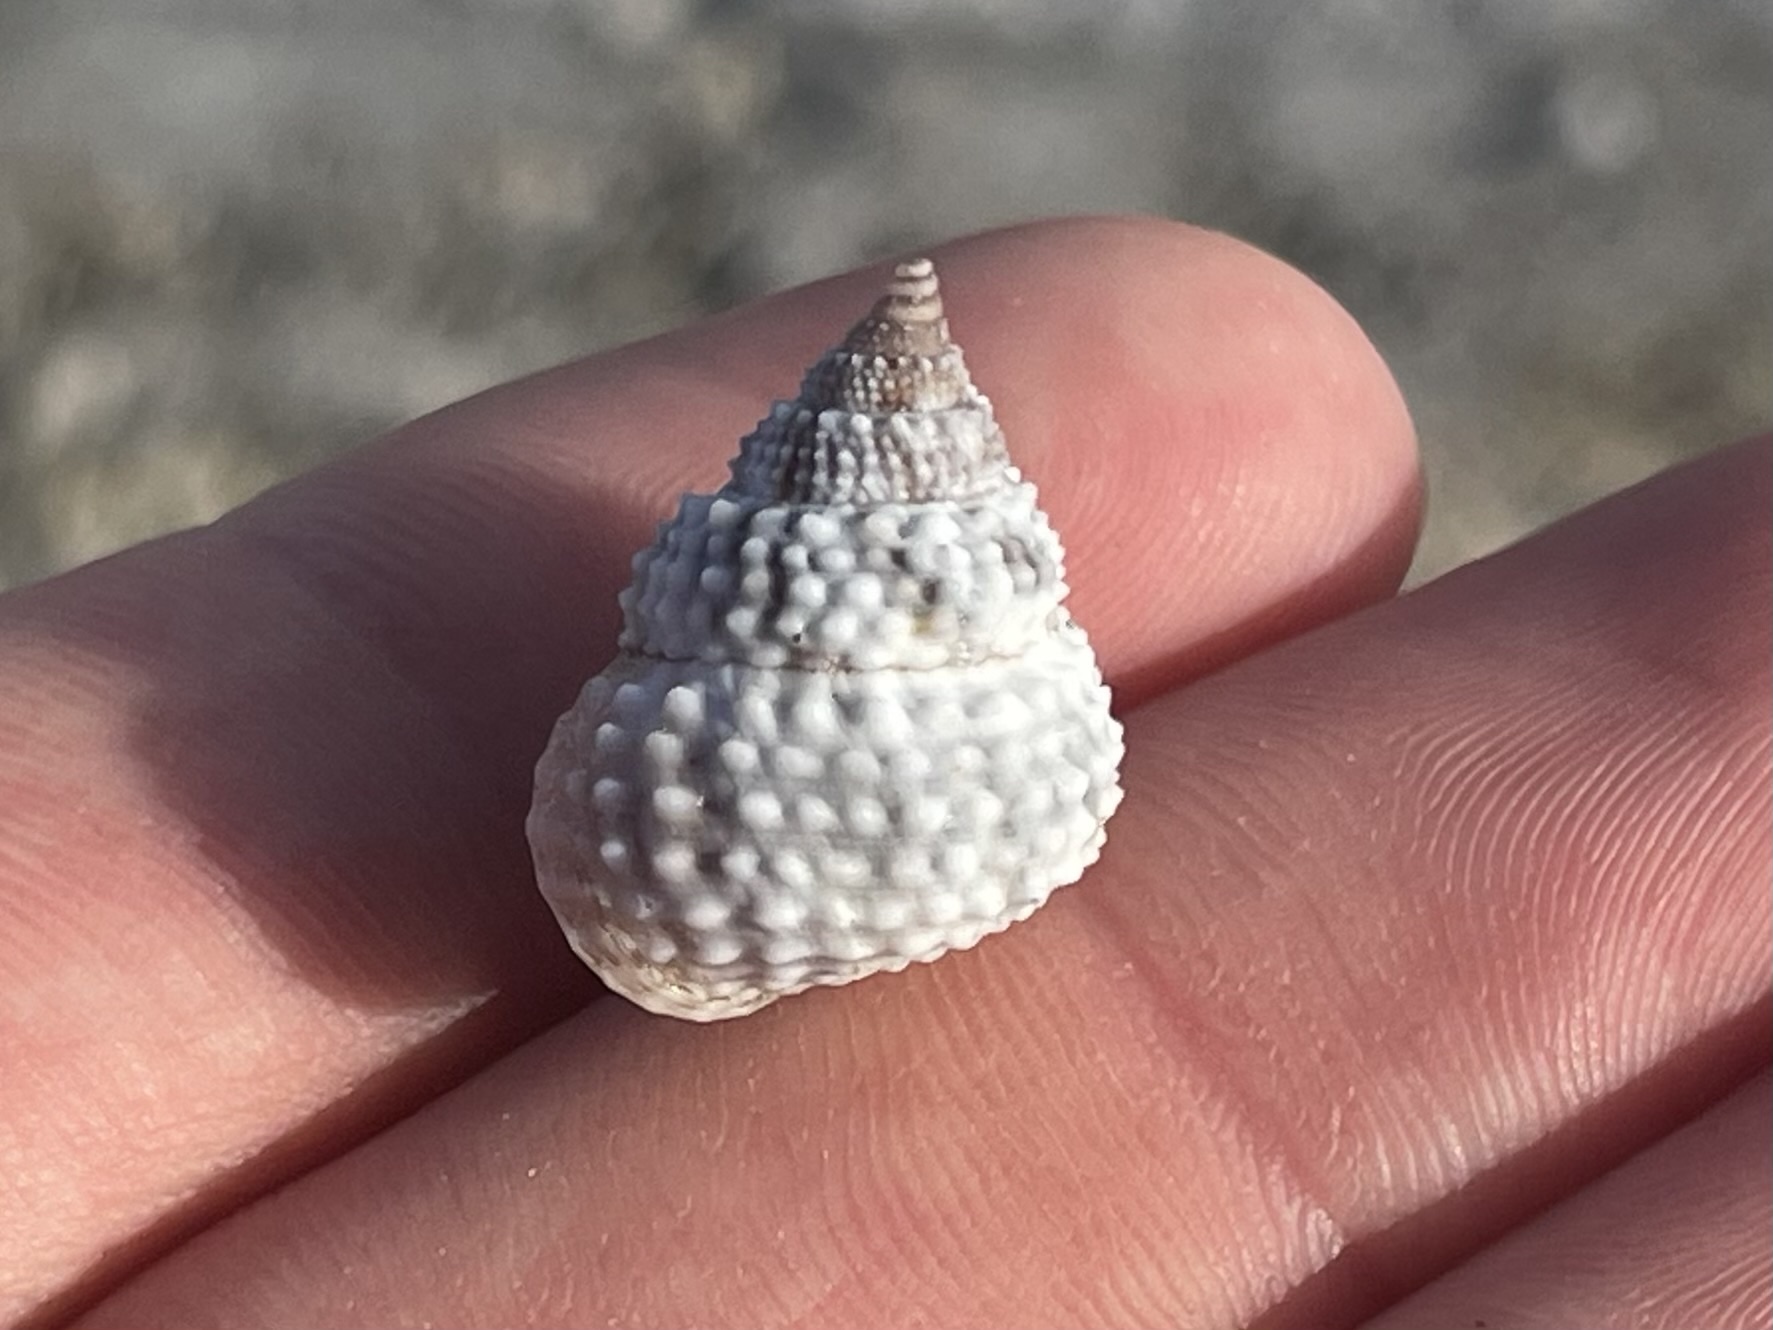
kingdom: Animalia
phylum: Mollusca
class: Gastropoda
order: Littorinimorpha
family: Littorinidae
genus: Cenchritis
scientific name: Cenchritis muricatus
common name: Beaded periwinkle
